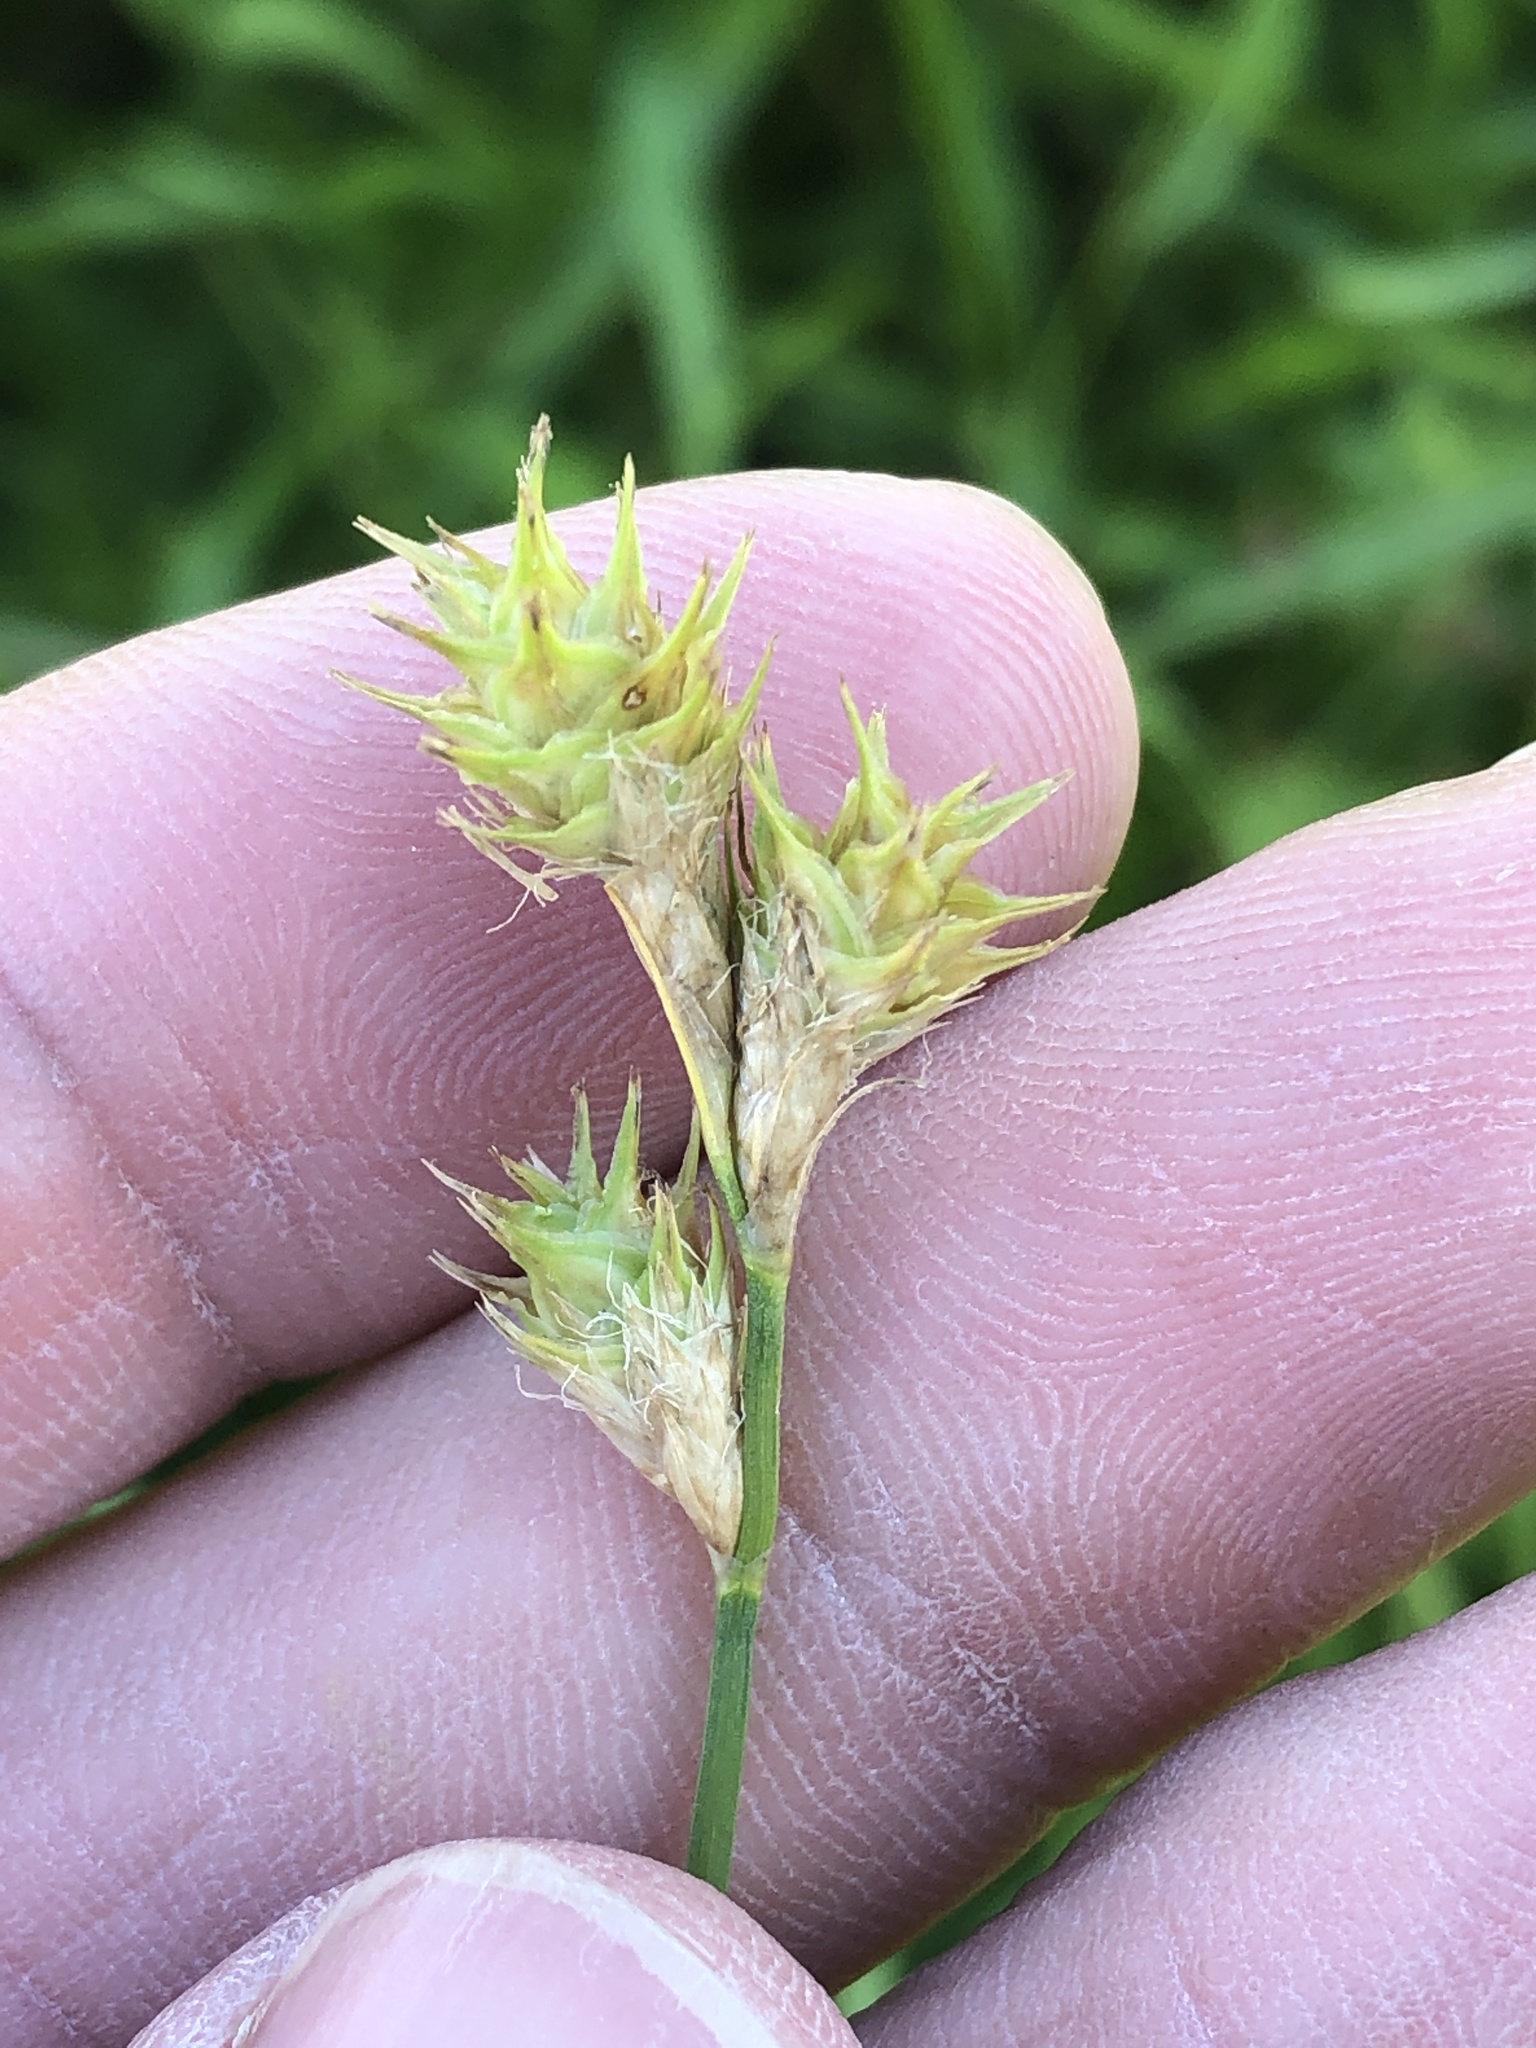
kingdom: Plantae
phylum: Tracheophyta
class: Liliopsida
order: Poales
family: Cyperaceae
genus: Carex
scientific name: Carex tetrastachya
